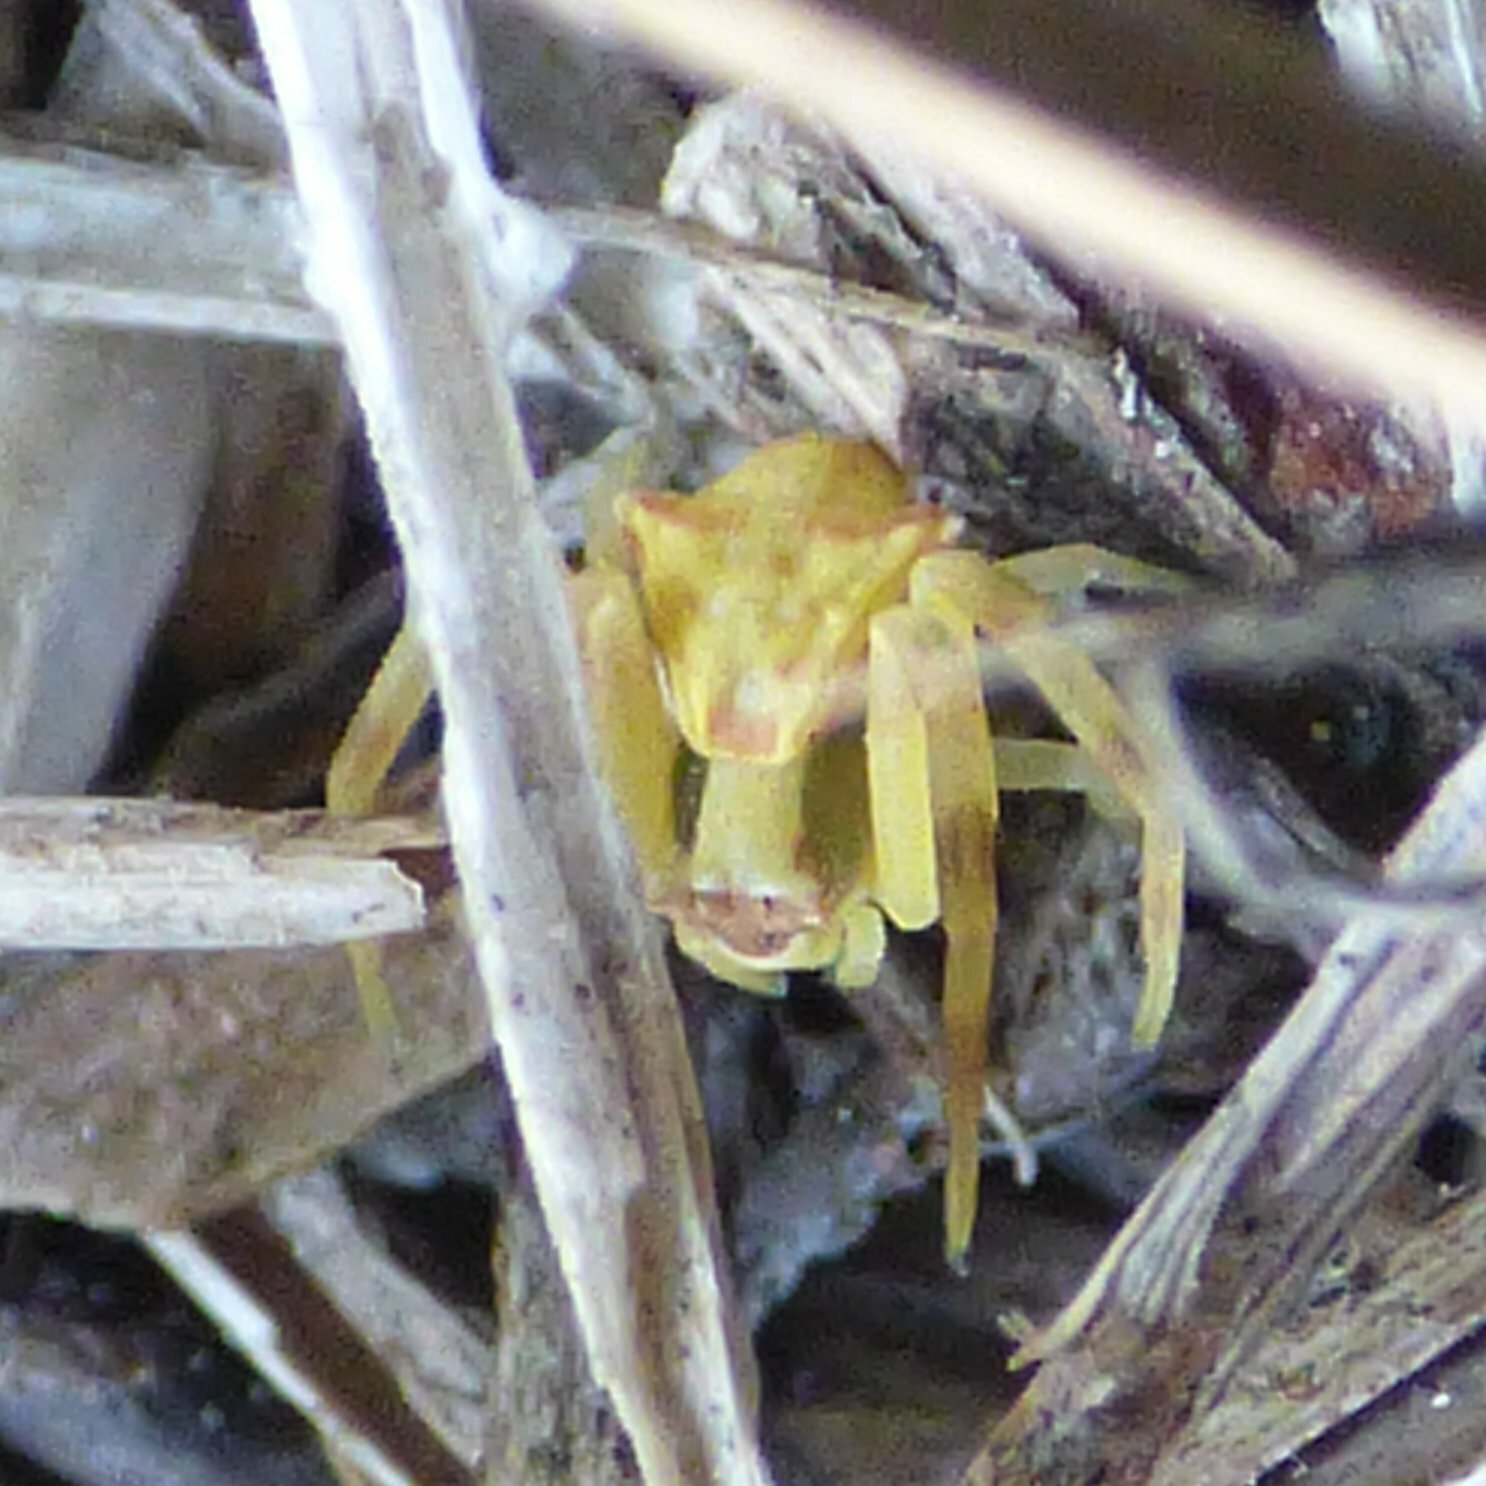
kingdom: Animalia
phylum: Arthropoda
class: Arachnida
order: Araneae
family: Thomisidae
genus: Thomisus
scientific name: Thomisus onustus
